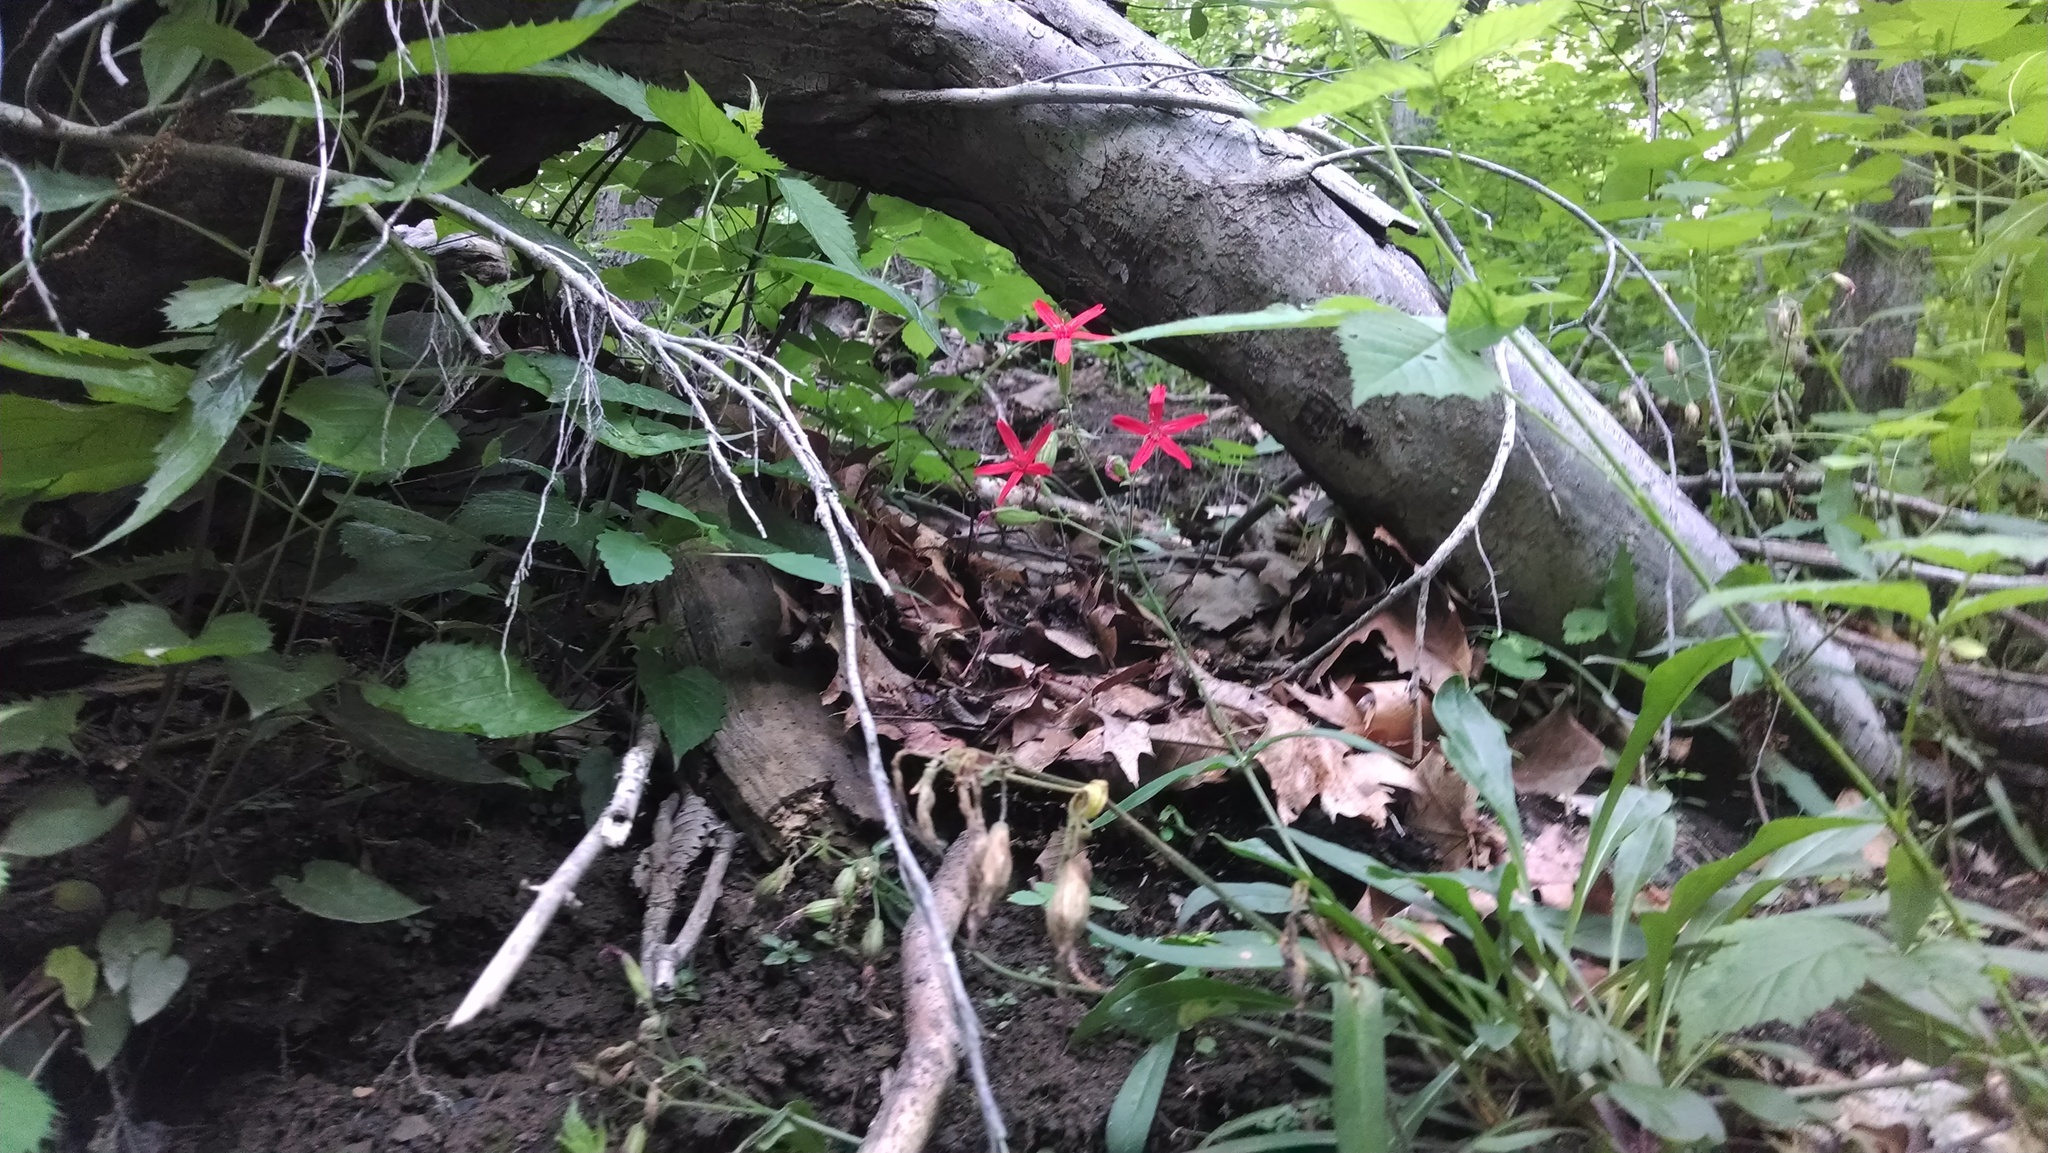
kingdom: Plantae
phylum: Tracheophyta
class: Magnoliopsida
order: Caryophyllales
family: Caryophyllaceae
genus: Silene
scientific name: Silene virginica
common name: Fire-pink
